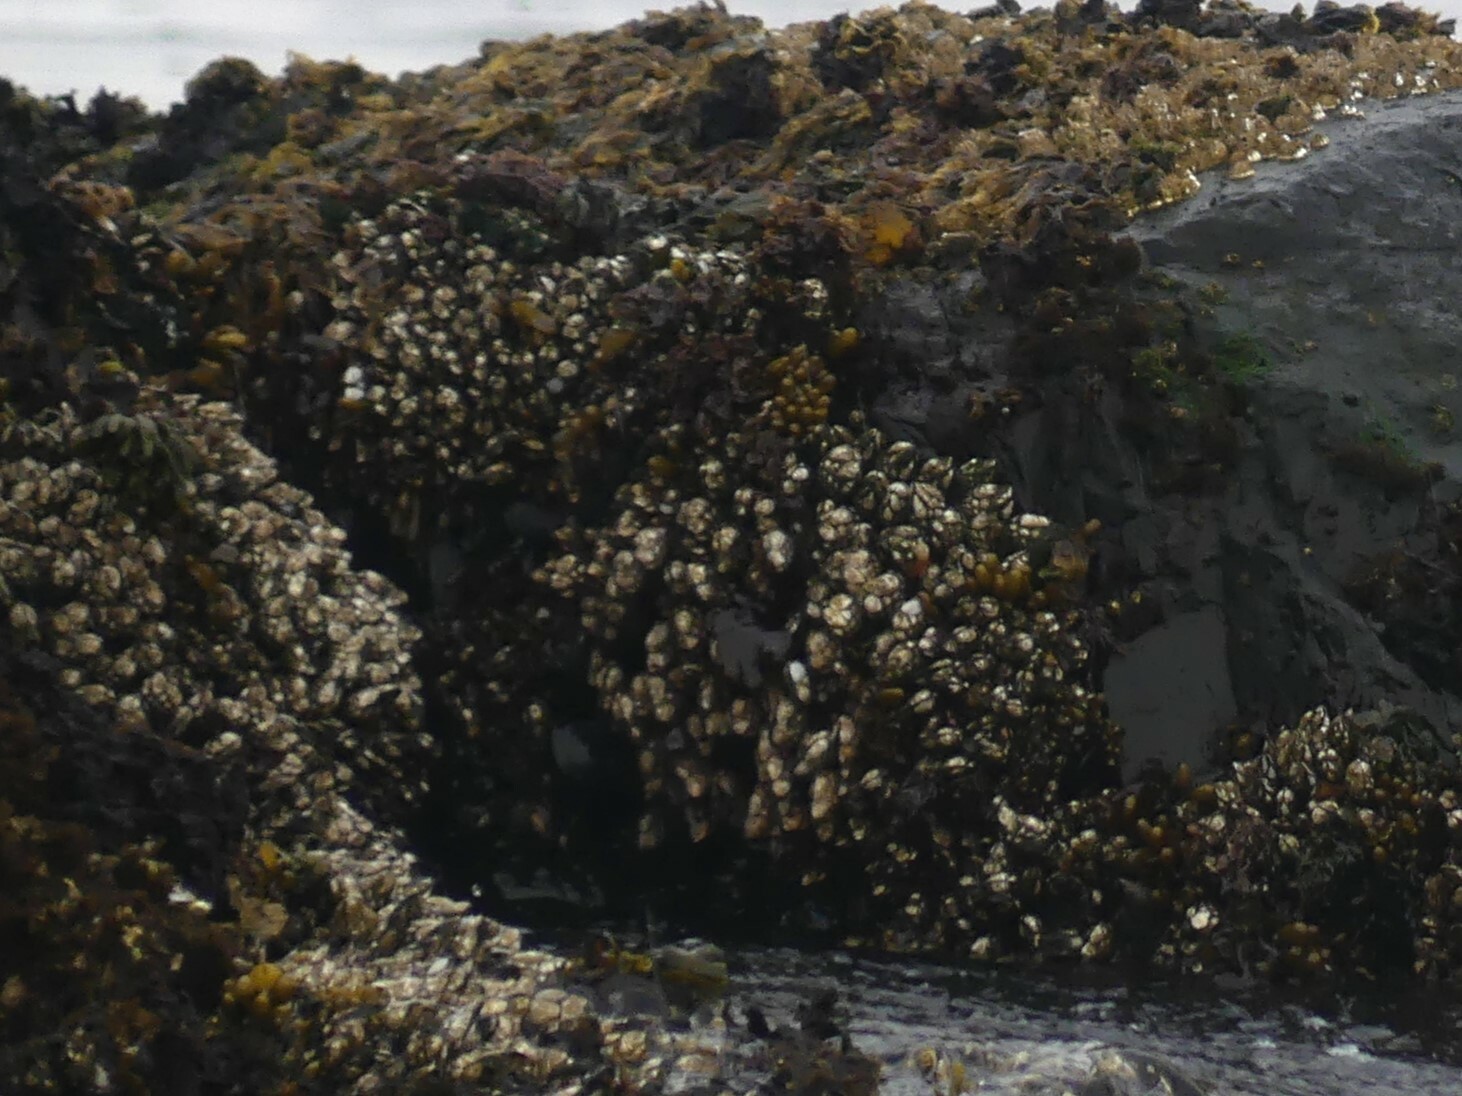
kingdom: Animalia
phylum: Arthropoda
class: Maxillopoda
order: Pedunculata
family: Pollicipedidae
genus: Pollicipes
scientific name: Pollicipes polymerus
